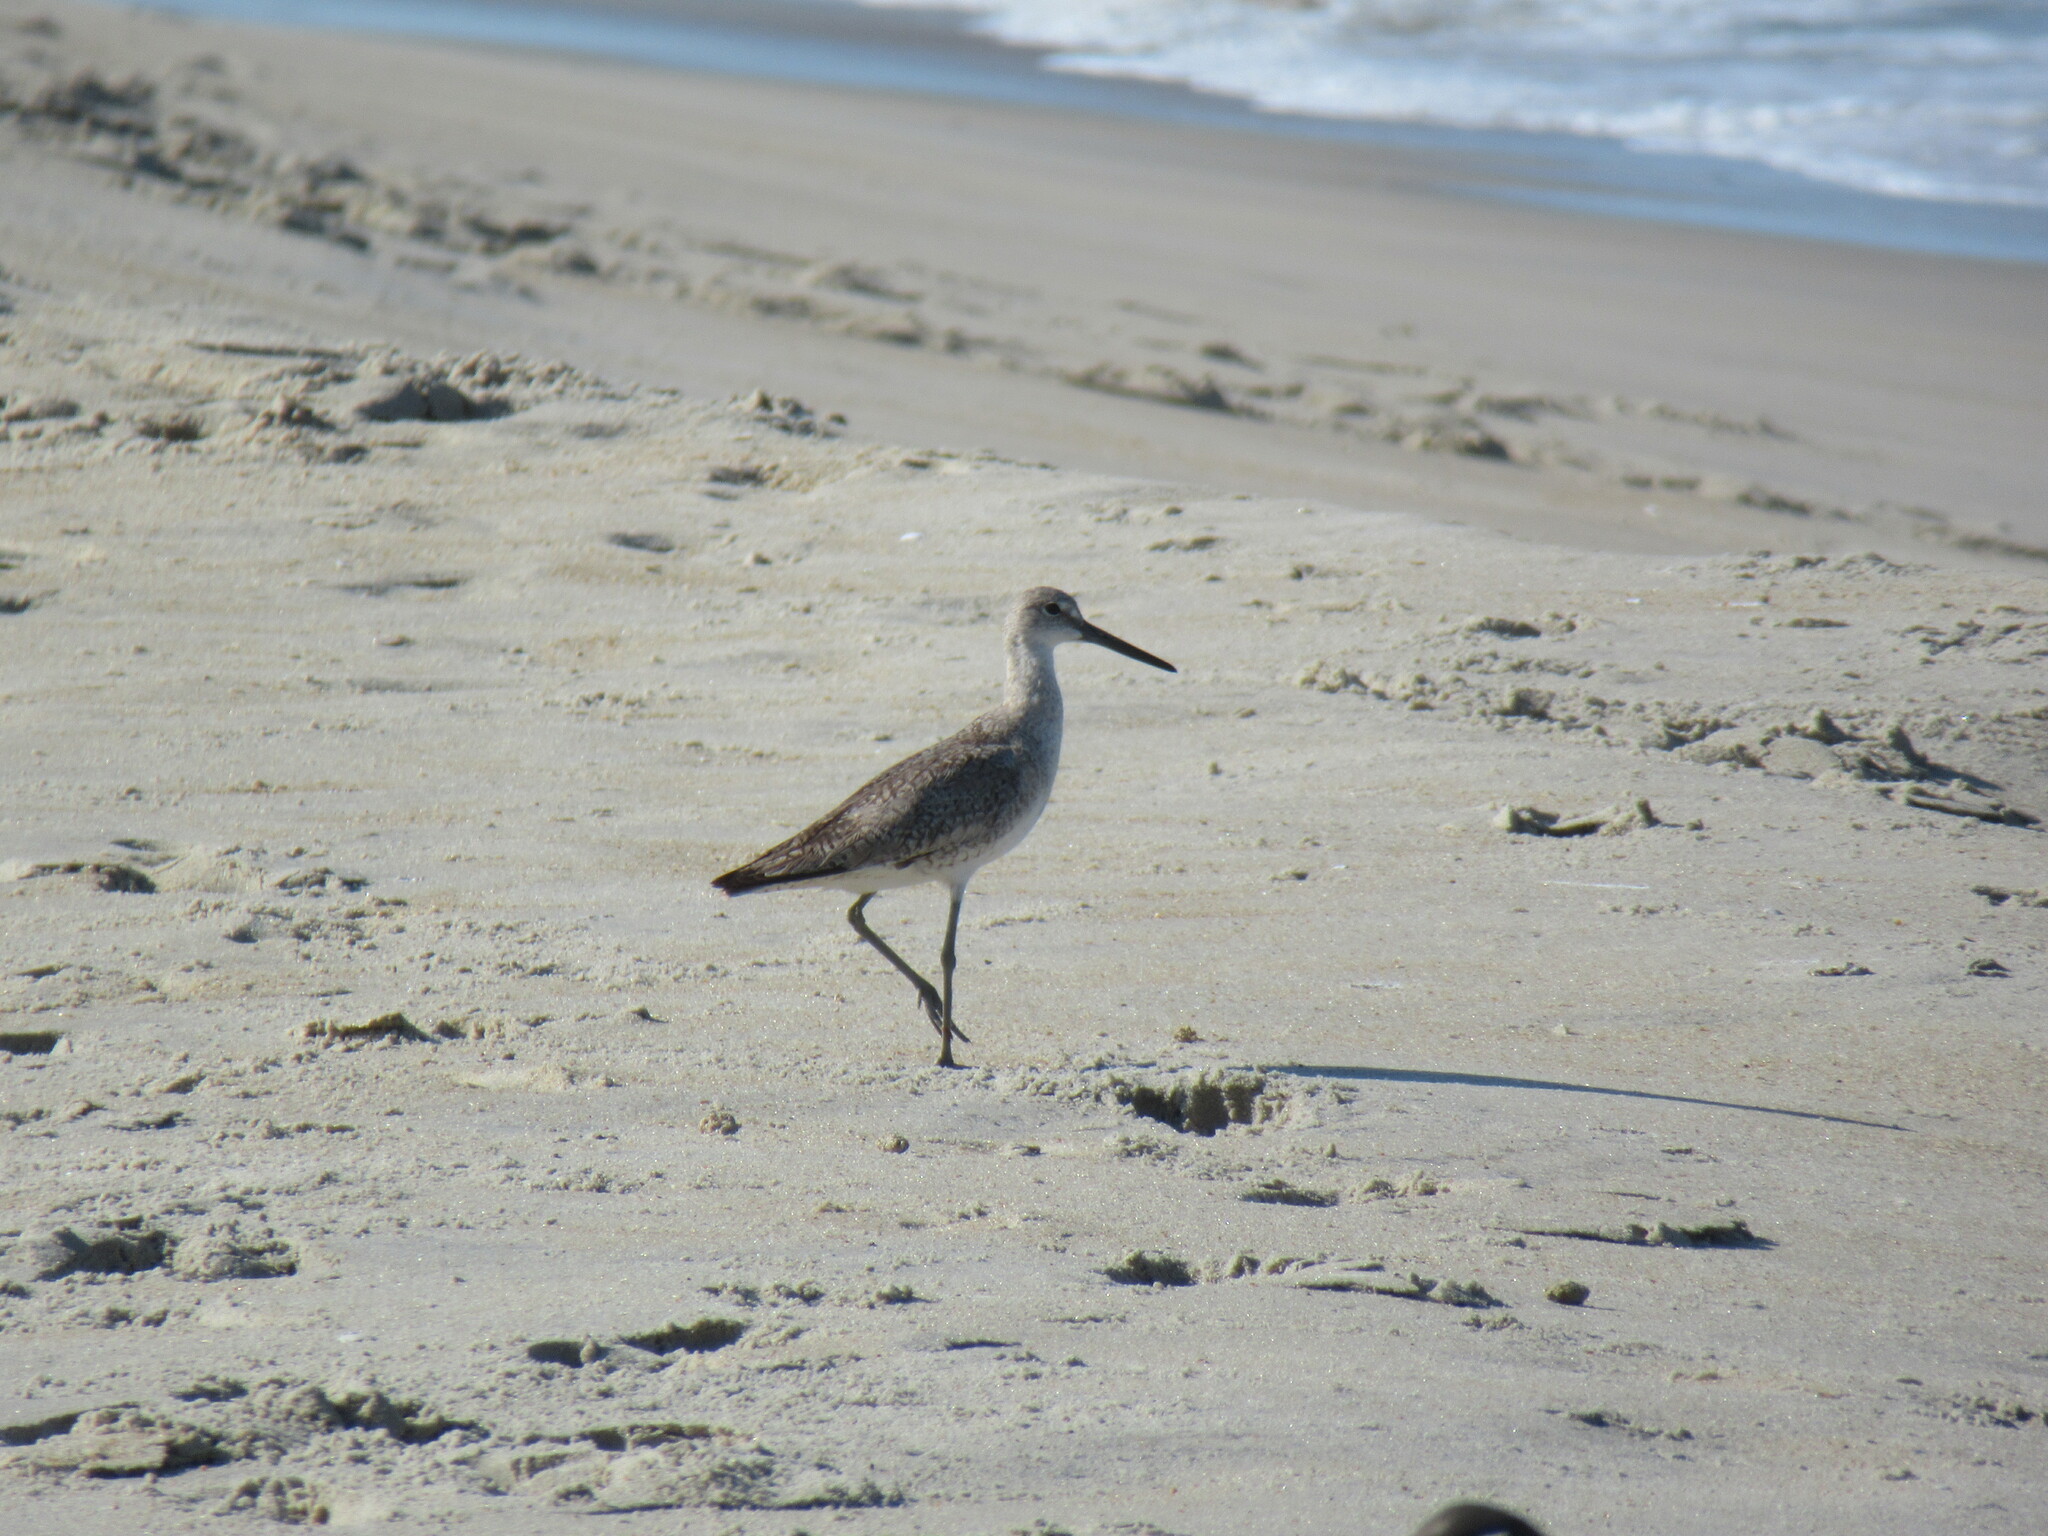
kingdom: Animalia
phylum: Chordata
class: Aves
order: Charadriiformes
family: Scolopacidae
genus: Tringa
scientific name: Tringa semipalmata
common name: Willet
